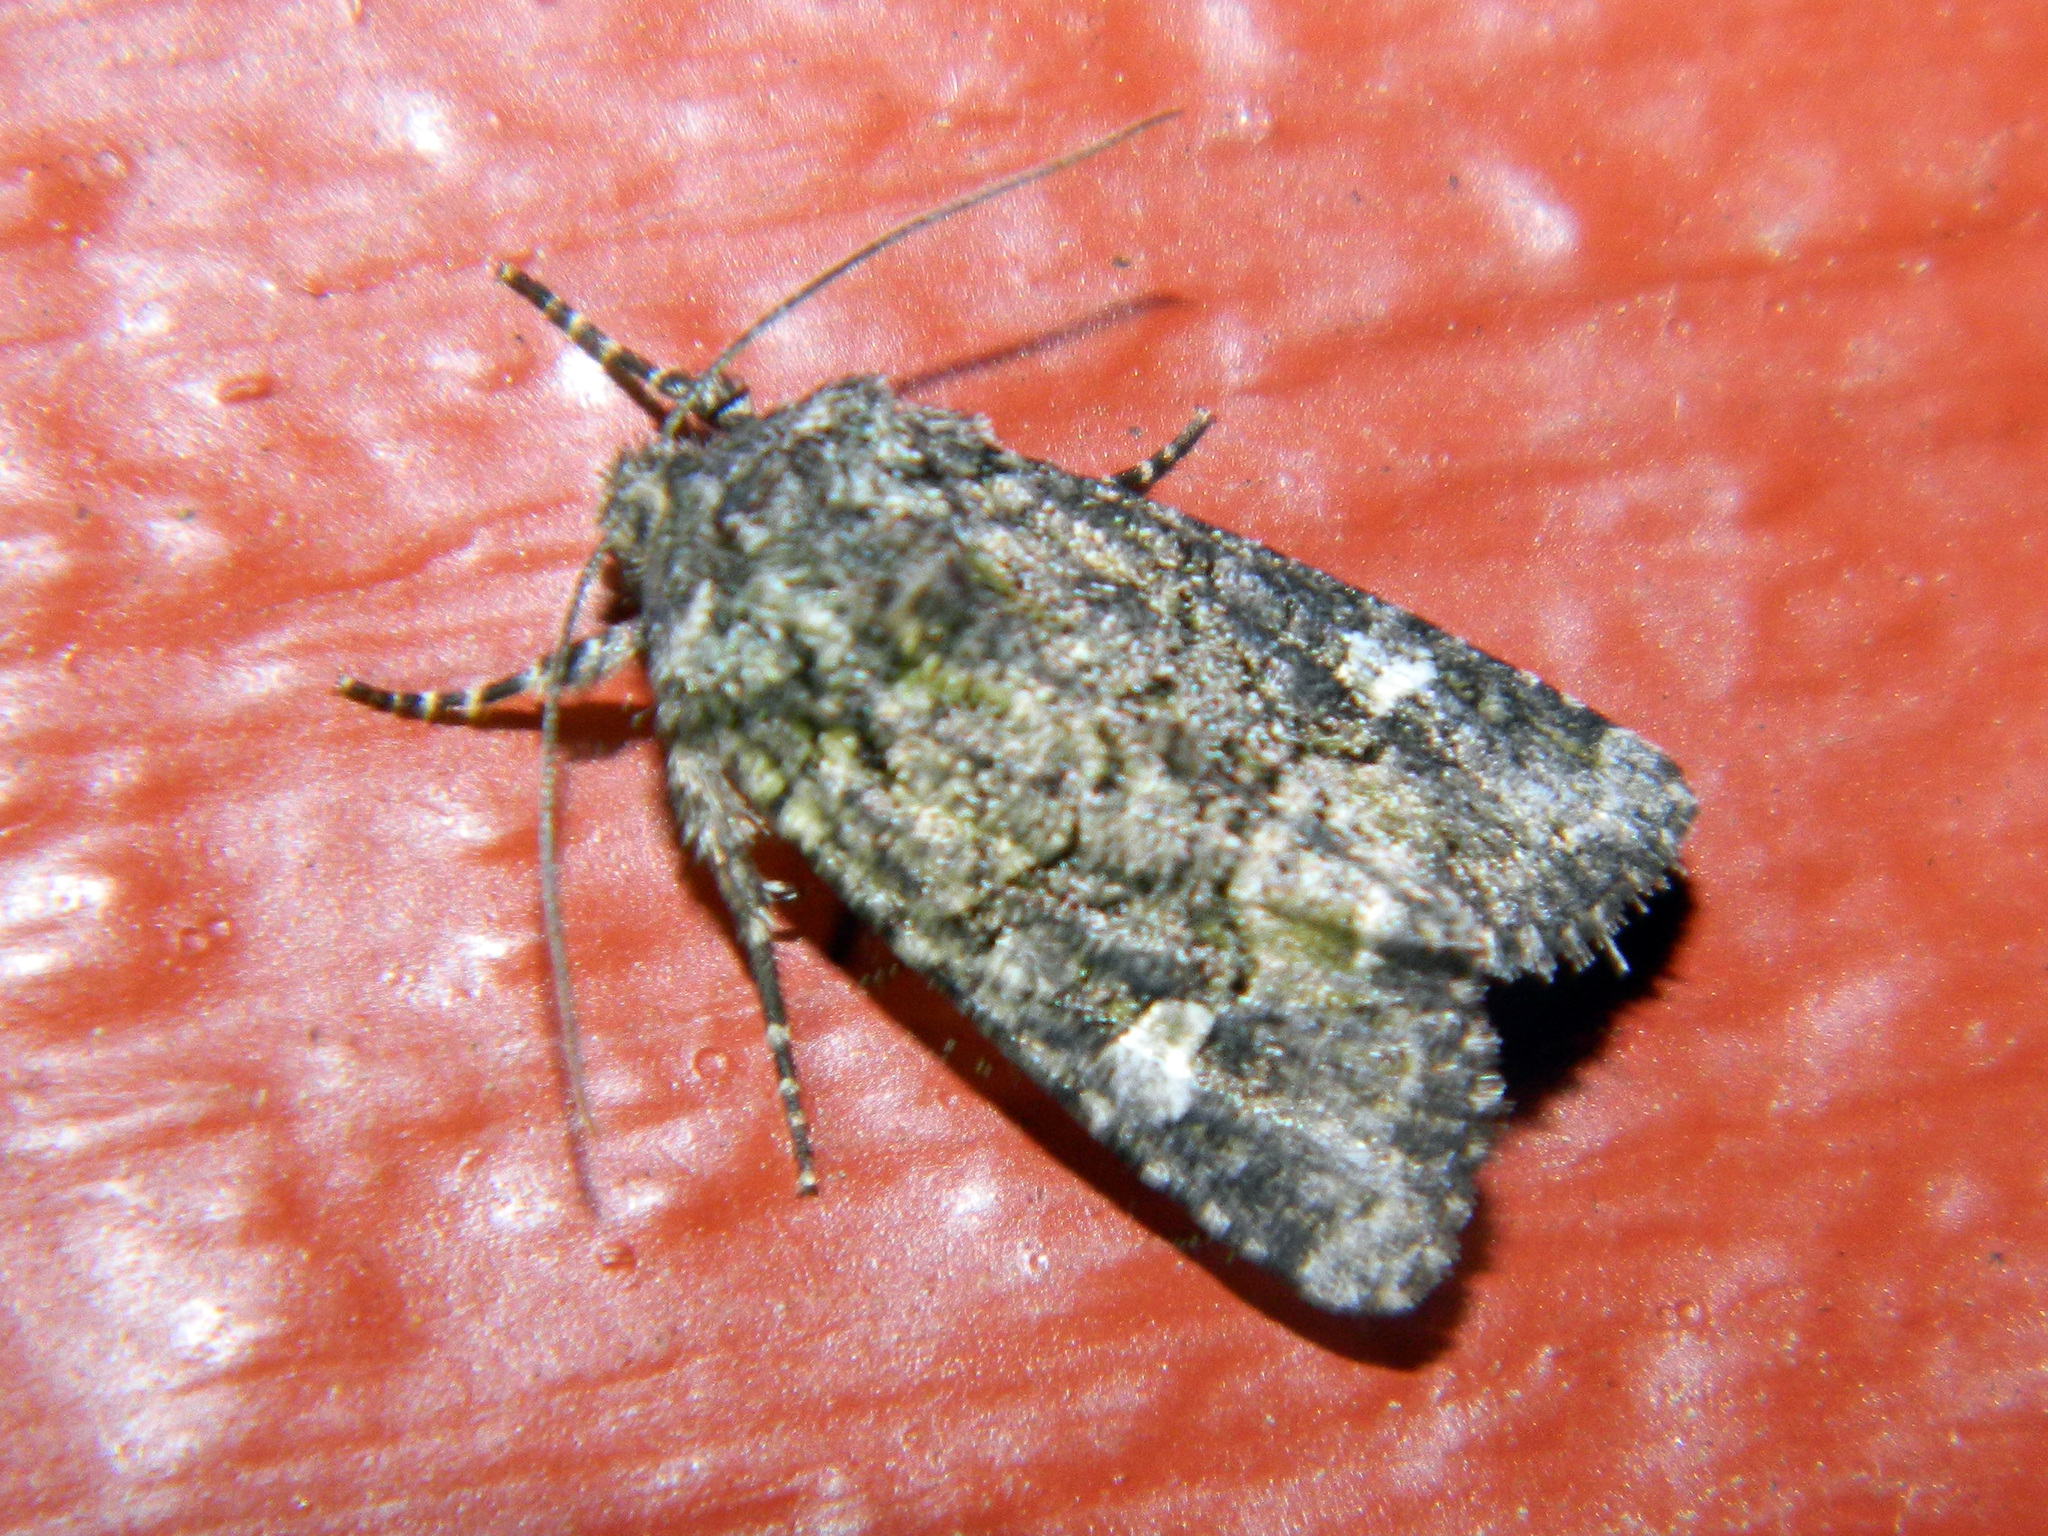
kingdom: Animalia
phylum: Arthropoda
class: Insecta
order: Lepidoptera
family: Noctuidae
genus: Lacinipolia
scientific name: Lacinipolia olivacea
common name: Olive arches moth
